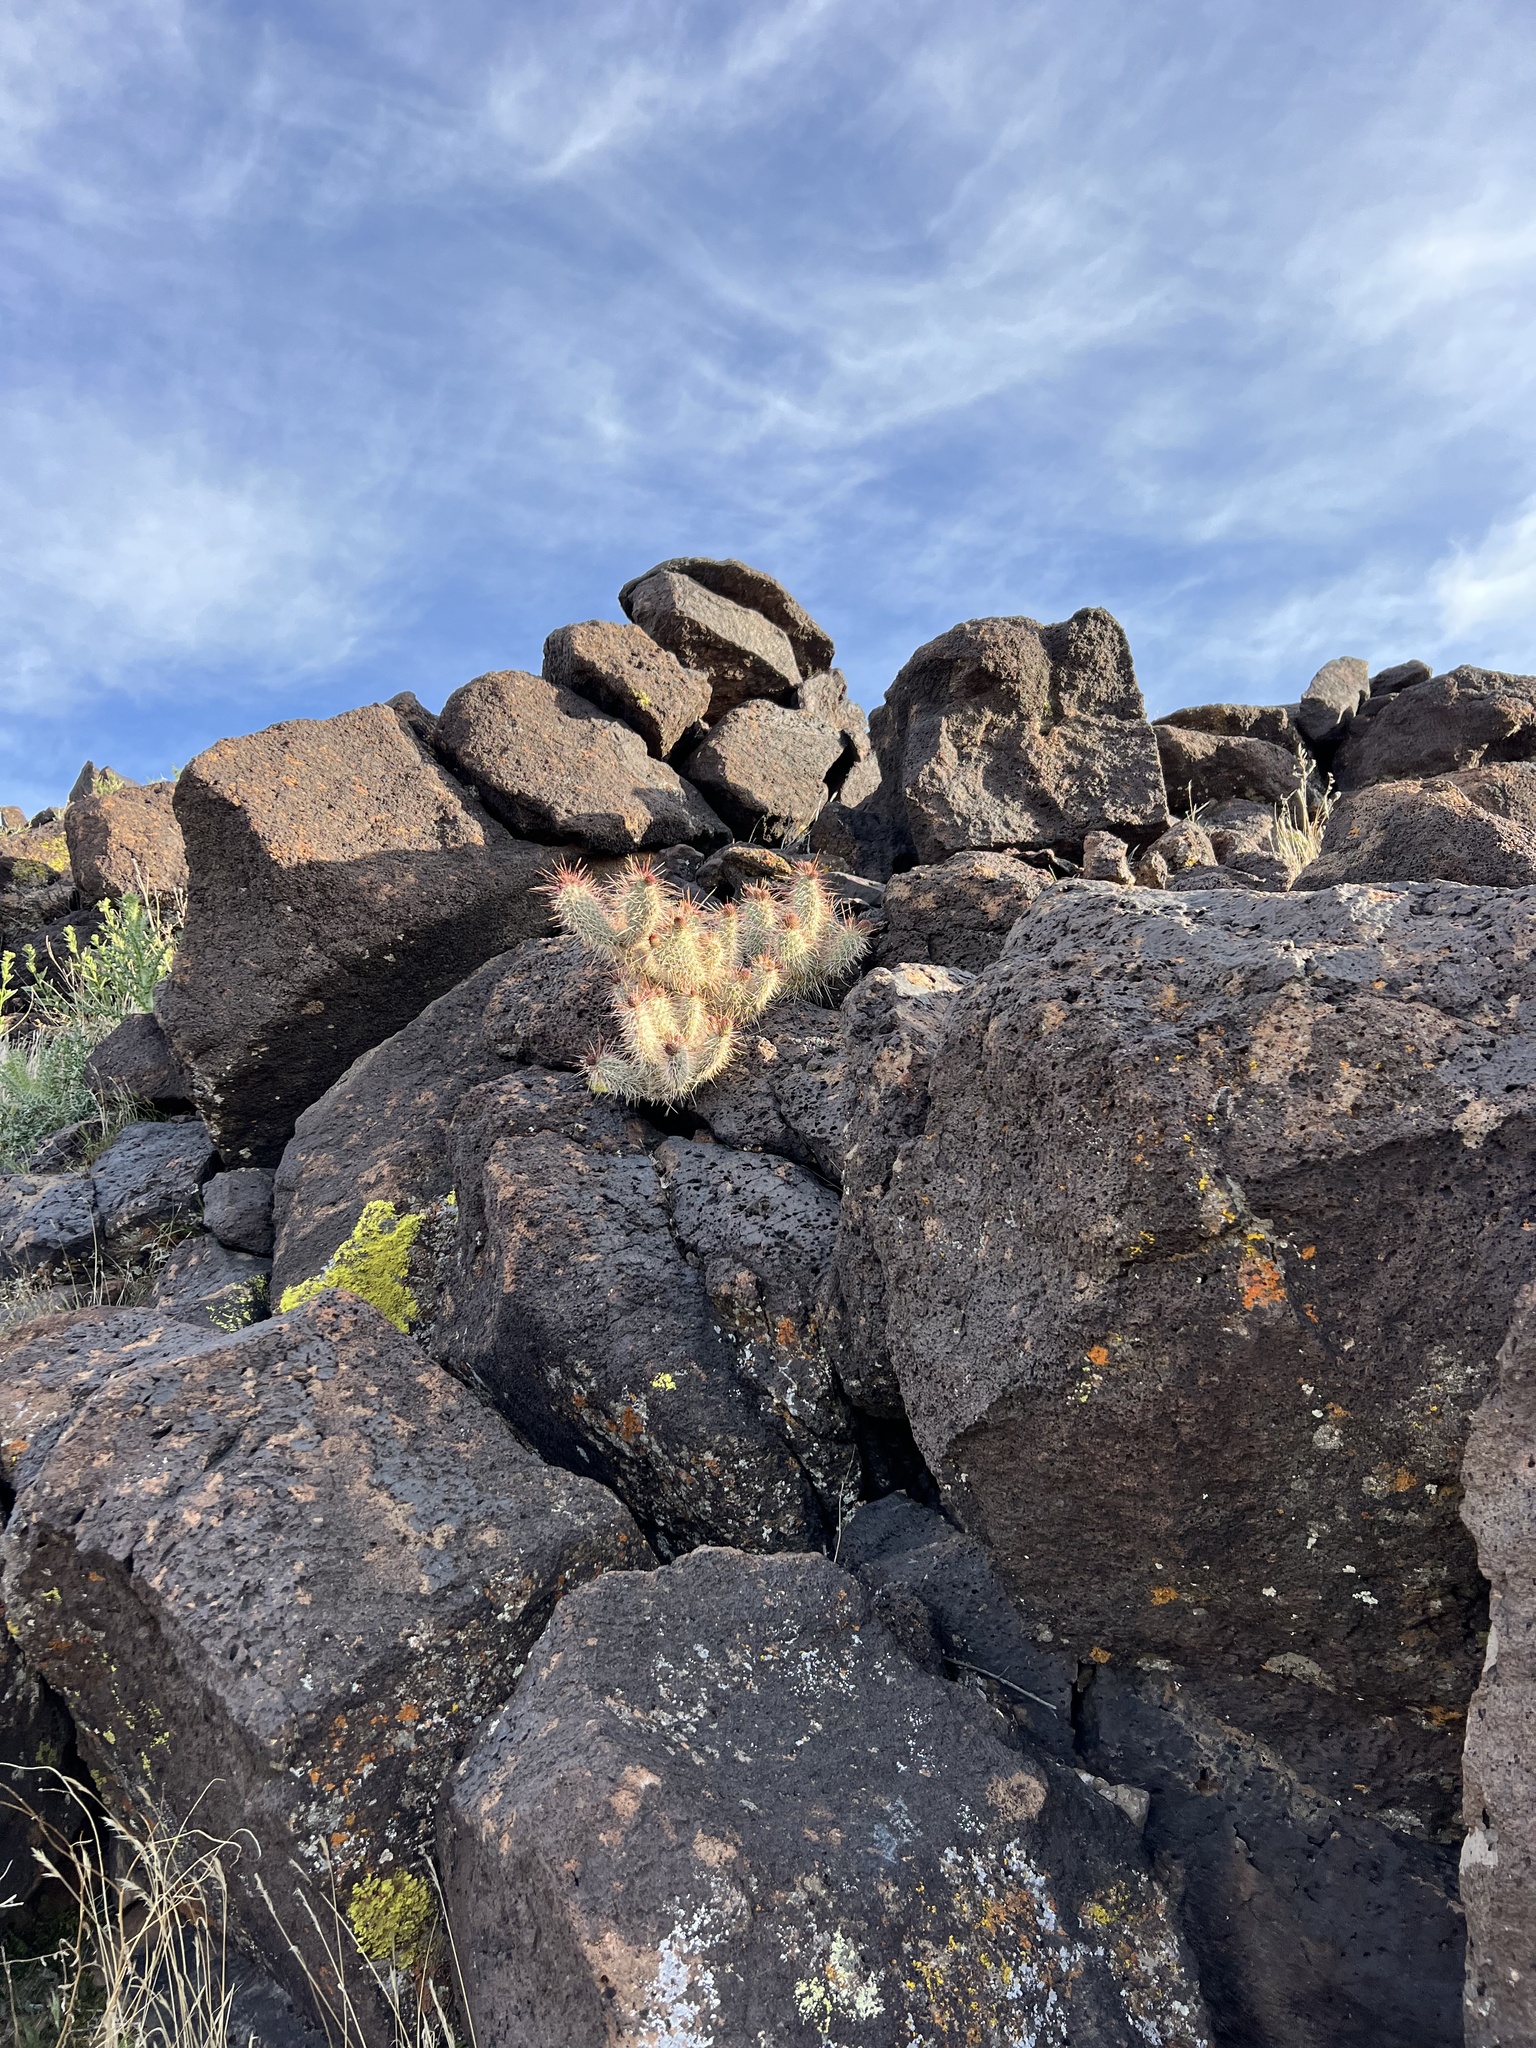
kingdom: Plantae
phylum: Tracheophyta
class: Magnoliopsida
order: Caryophyllales
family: Cactaceae
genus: Opuntia
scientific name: Opuntia polyacantha
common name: Plains prickly-pear
